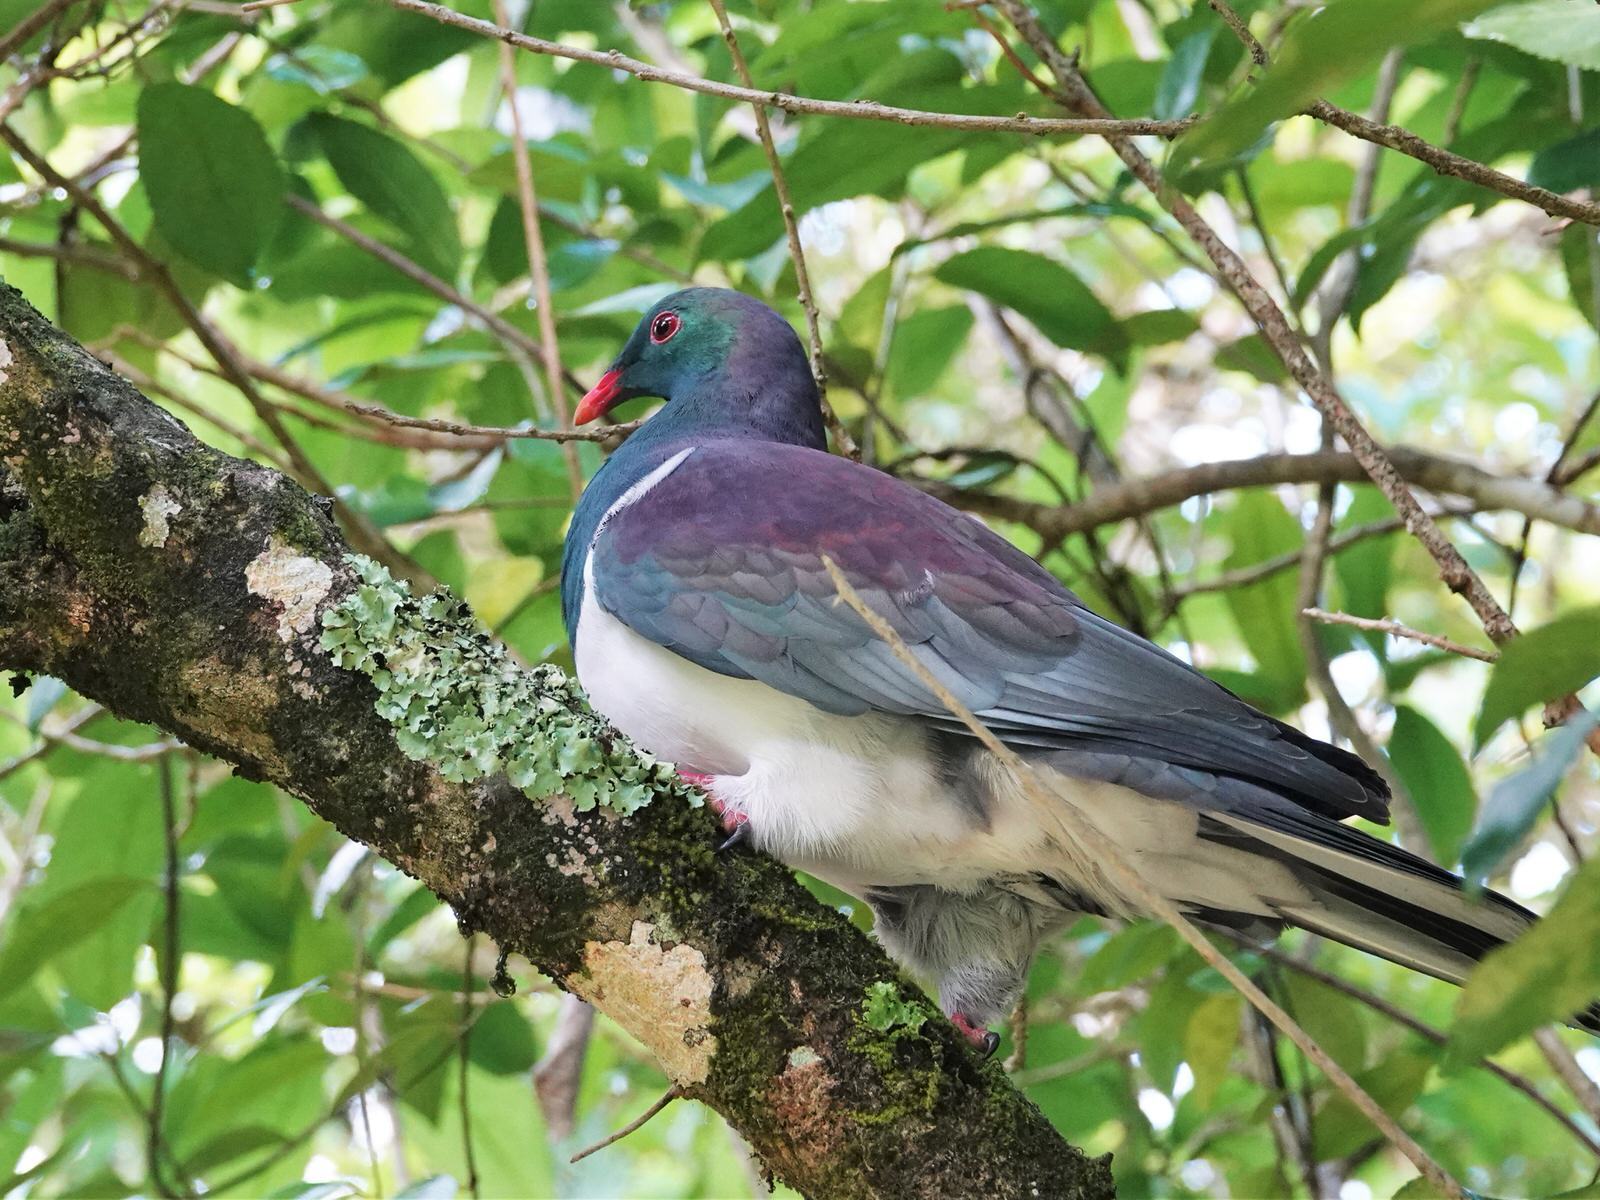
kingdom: Animalia
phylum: Chordata
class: Aves
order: Columbiformes
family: Columbidae
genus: Hemiphaga
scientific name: Hemiphaga novaeseelandiae
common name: New zealand pigeon
